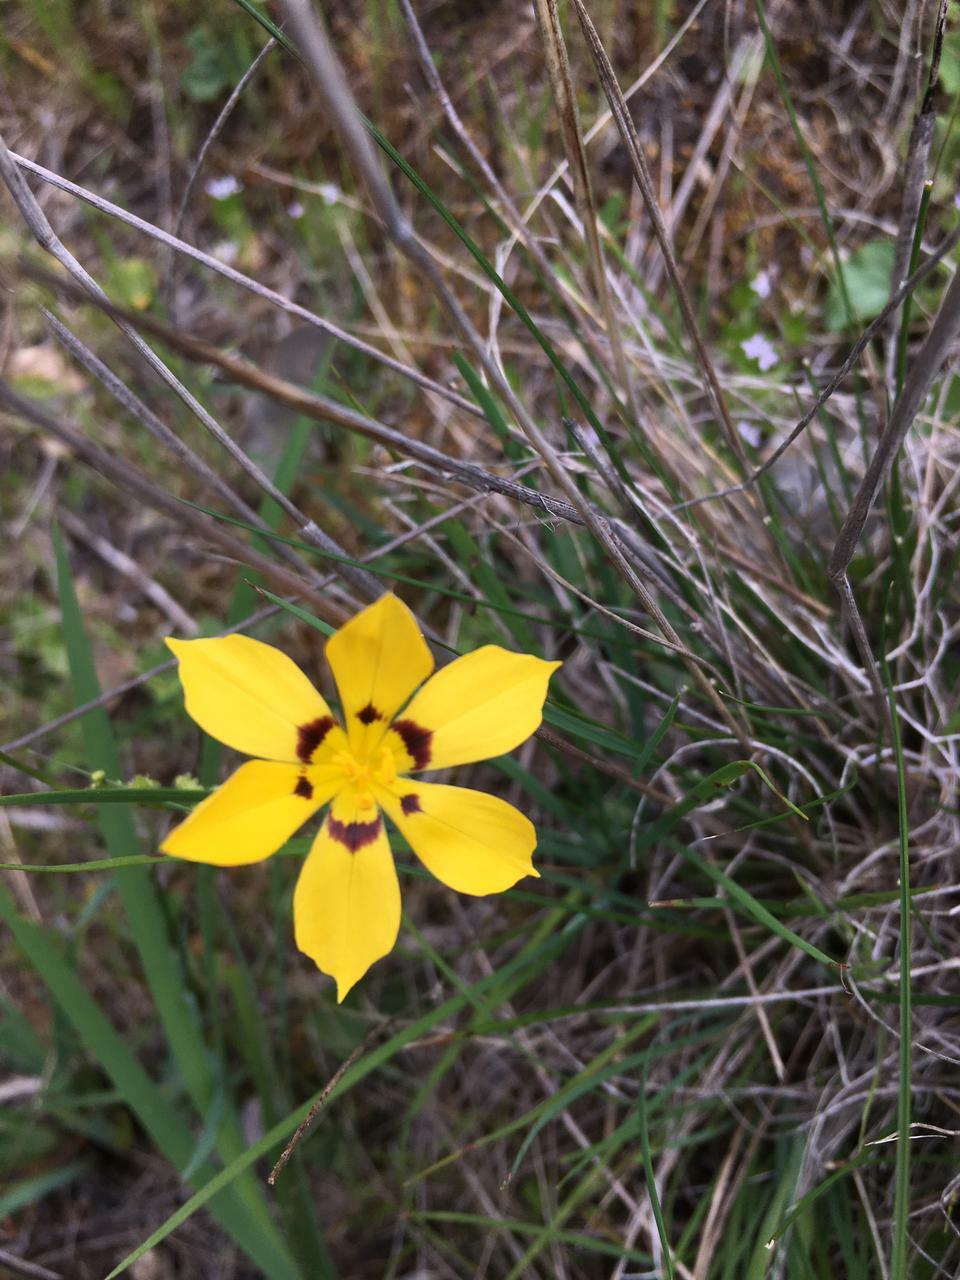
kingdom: Plantae
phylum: Tracheophyta
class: Liliopsida
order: Asparagales
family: Iridaceae
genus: Sisyrinchium
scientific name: Sisyrinchium graminifolium
